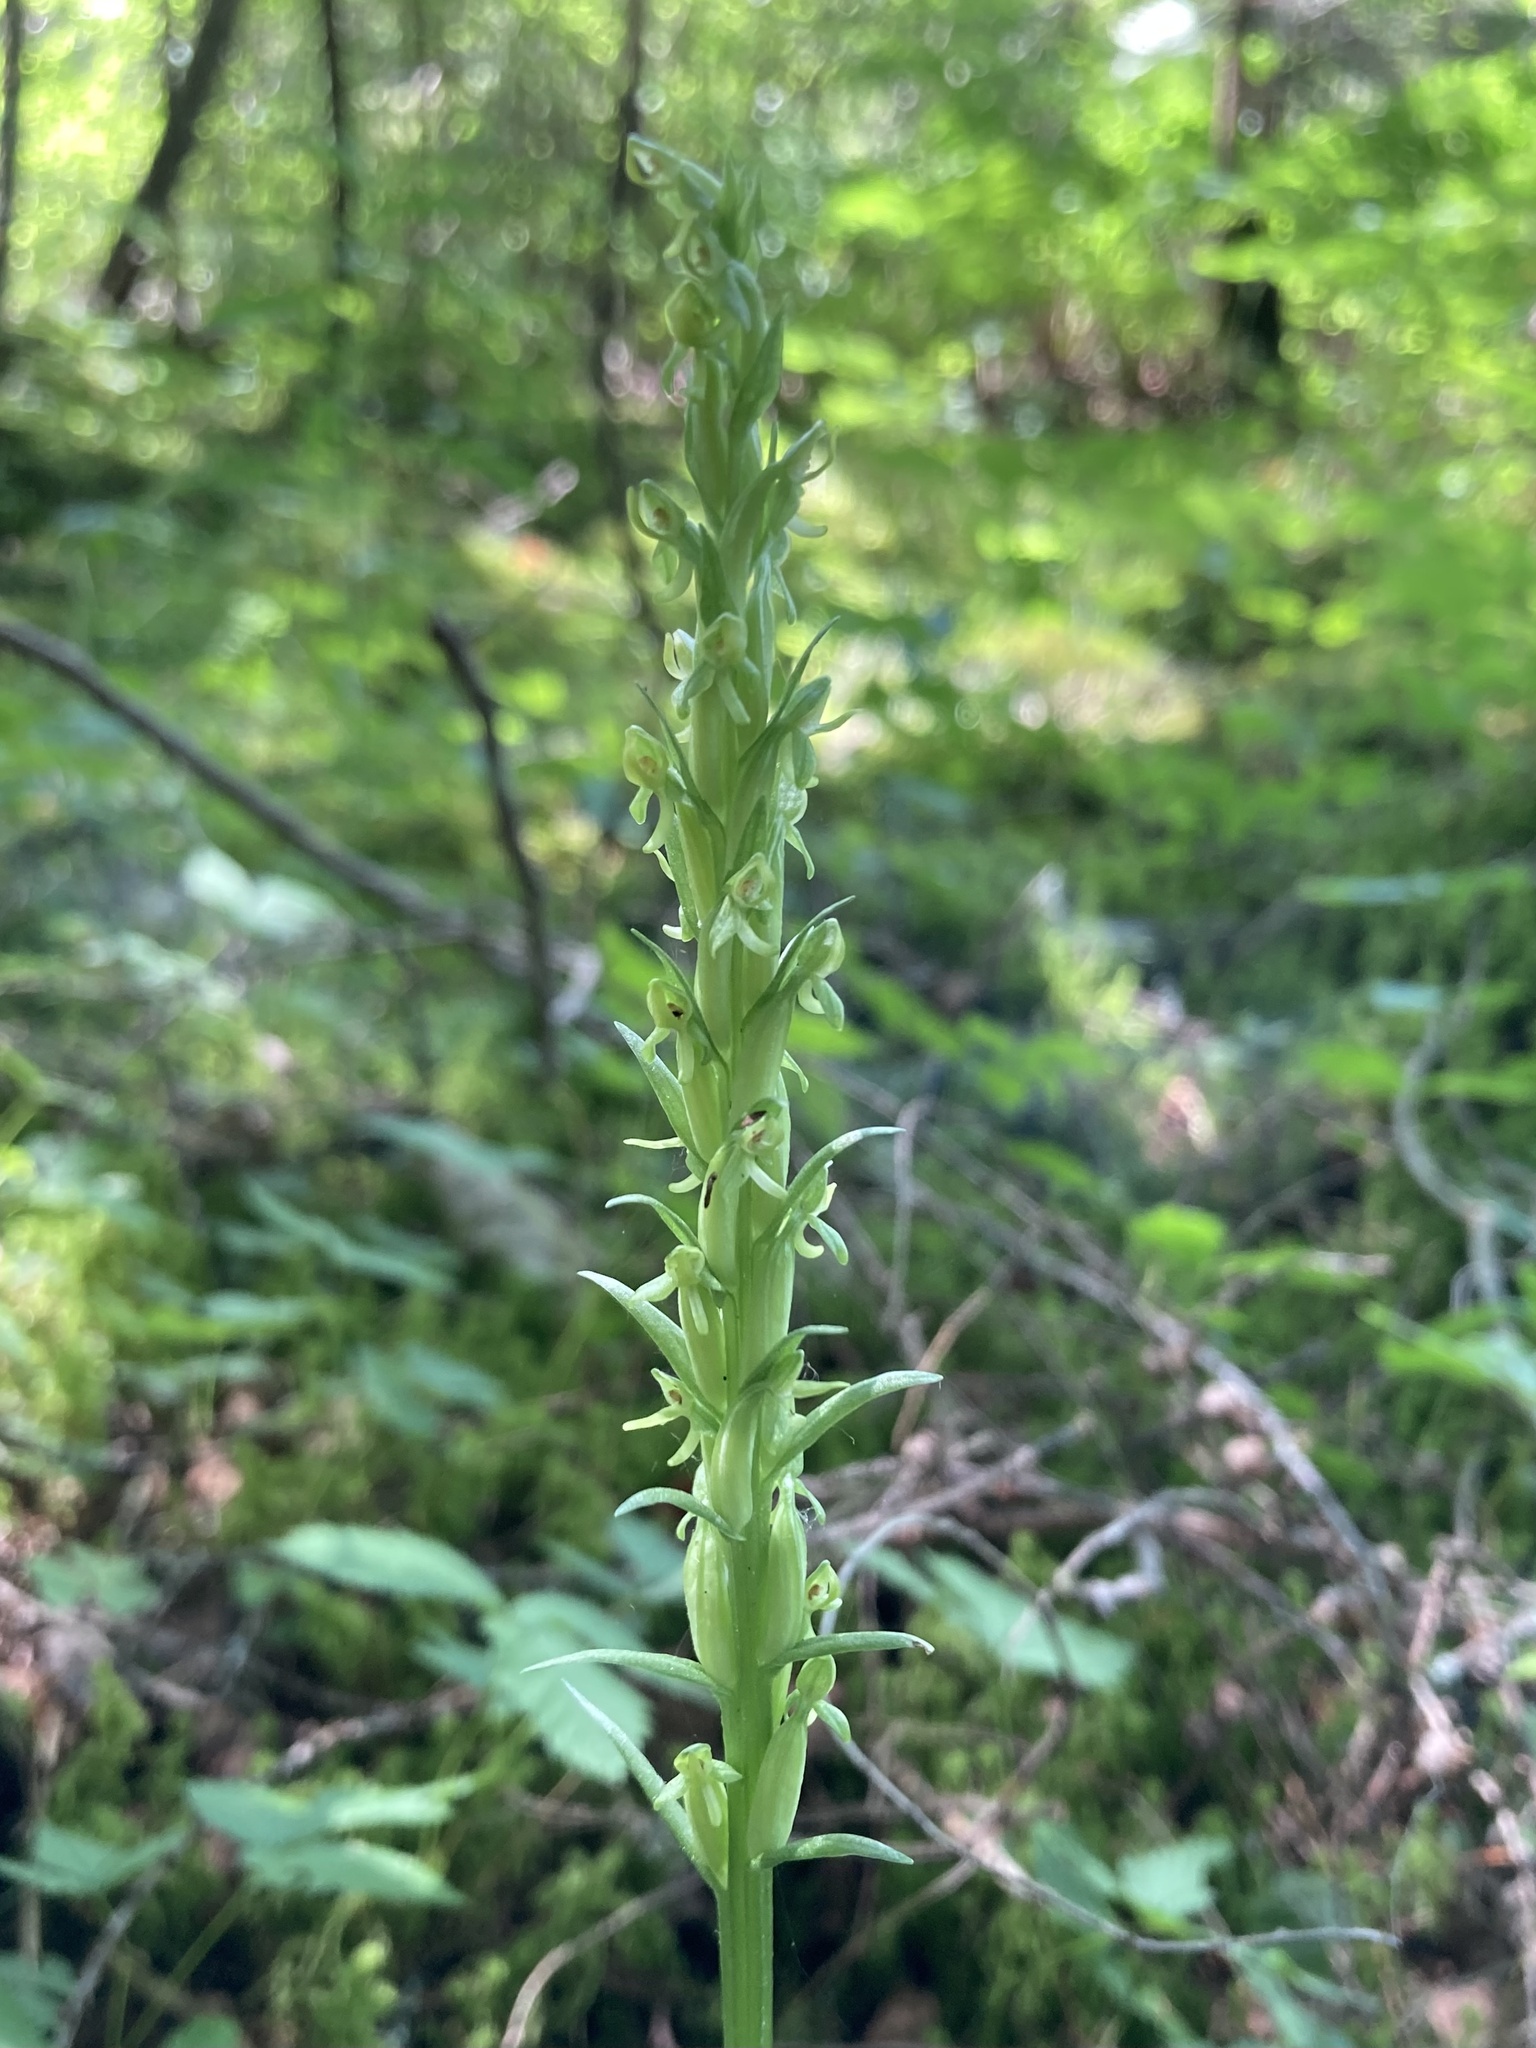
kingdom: Plantae
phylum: Tracheophyta
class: Liliopsida
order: Asparagales
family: Orchidaceae
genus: Platanthera
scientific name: Platanthera aquilonis
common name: Northern green orchid
